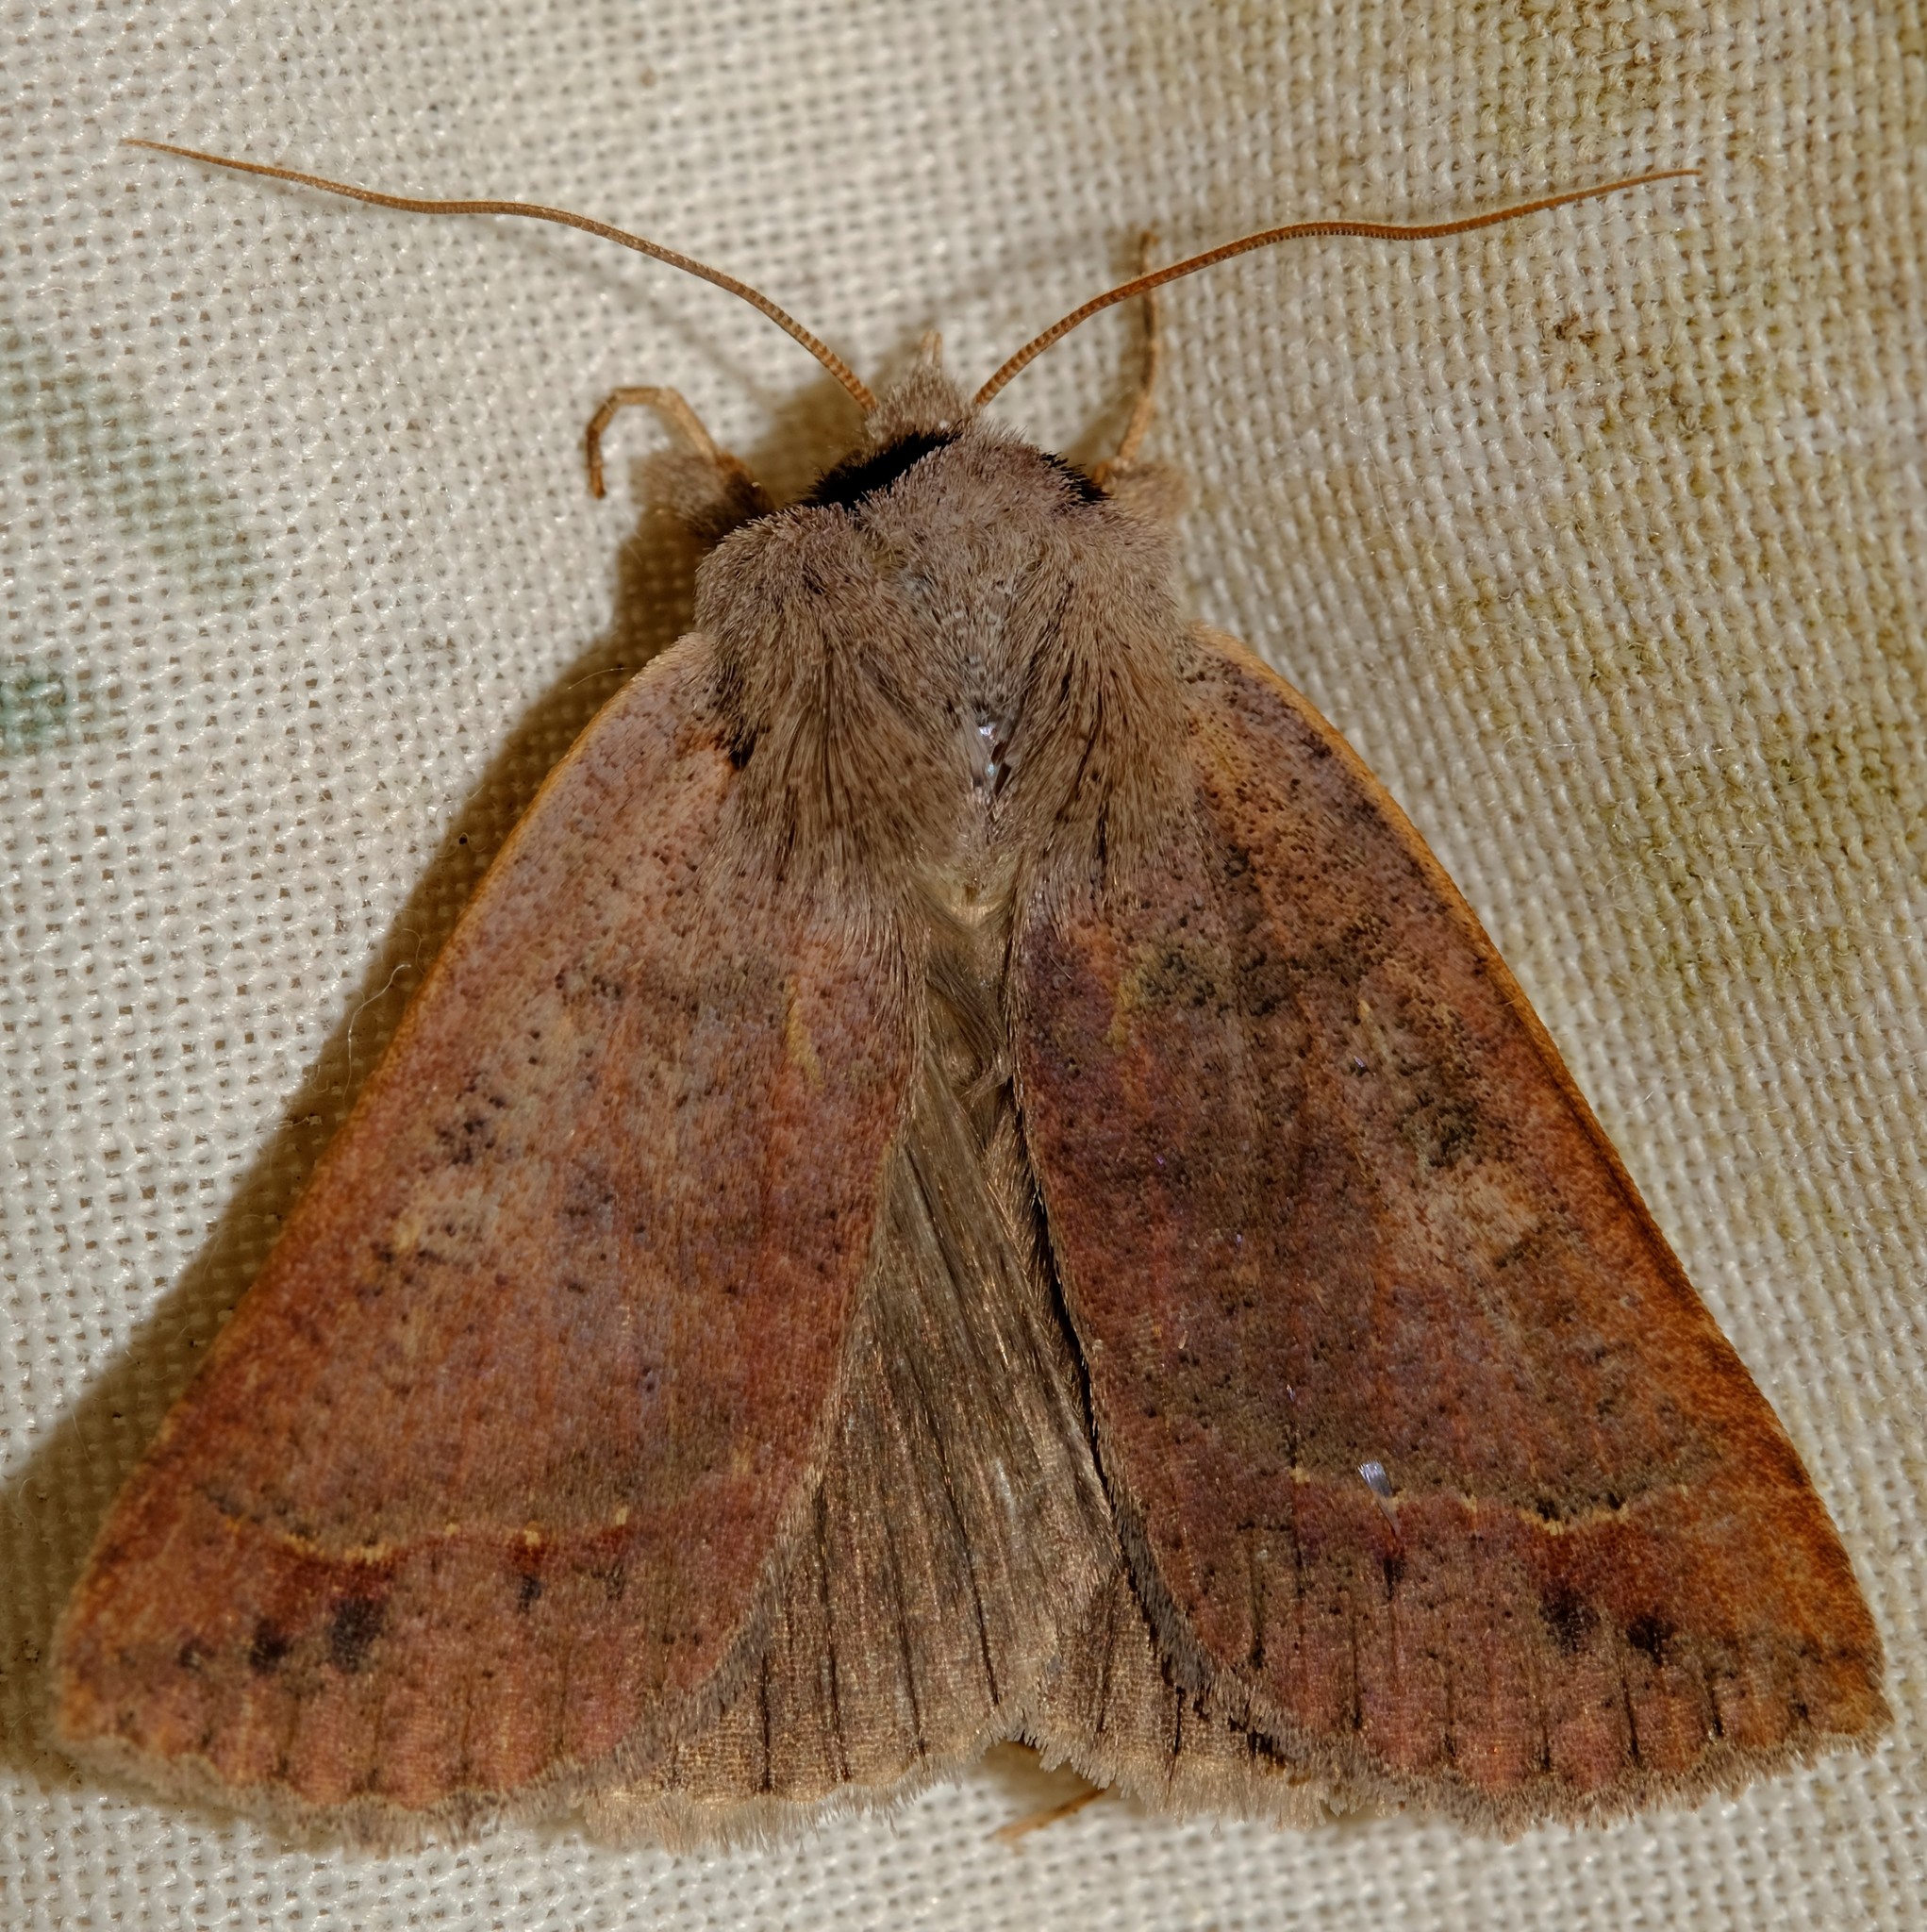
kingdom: Animalia
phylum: Arthropoda
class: Insecta
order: Lepidoptera
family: Erebidae
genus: Pantydia
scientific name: Pantydia diemeni
